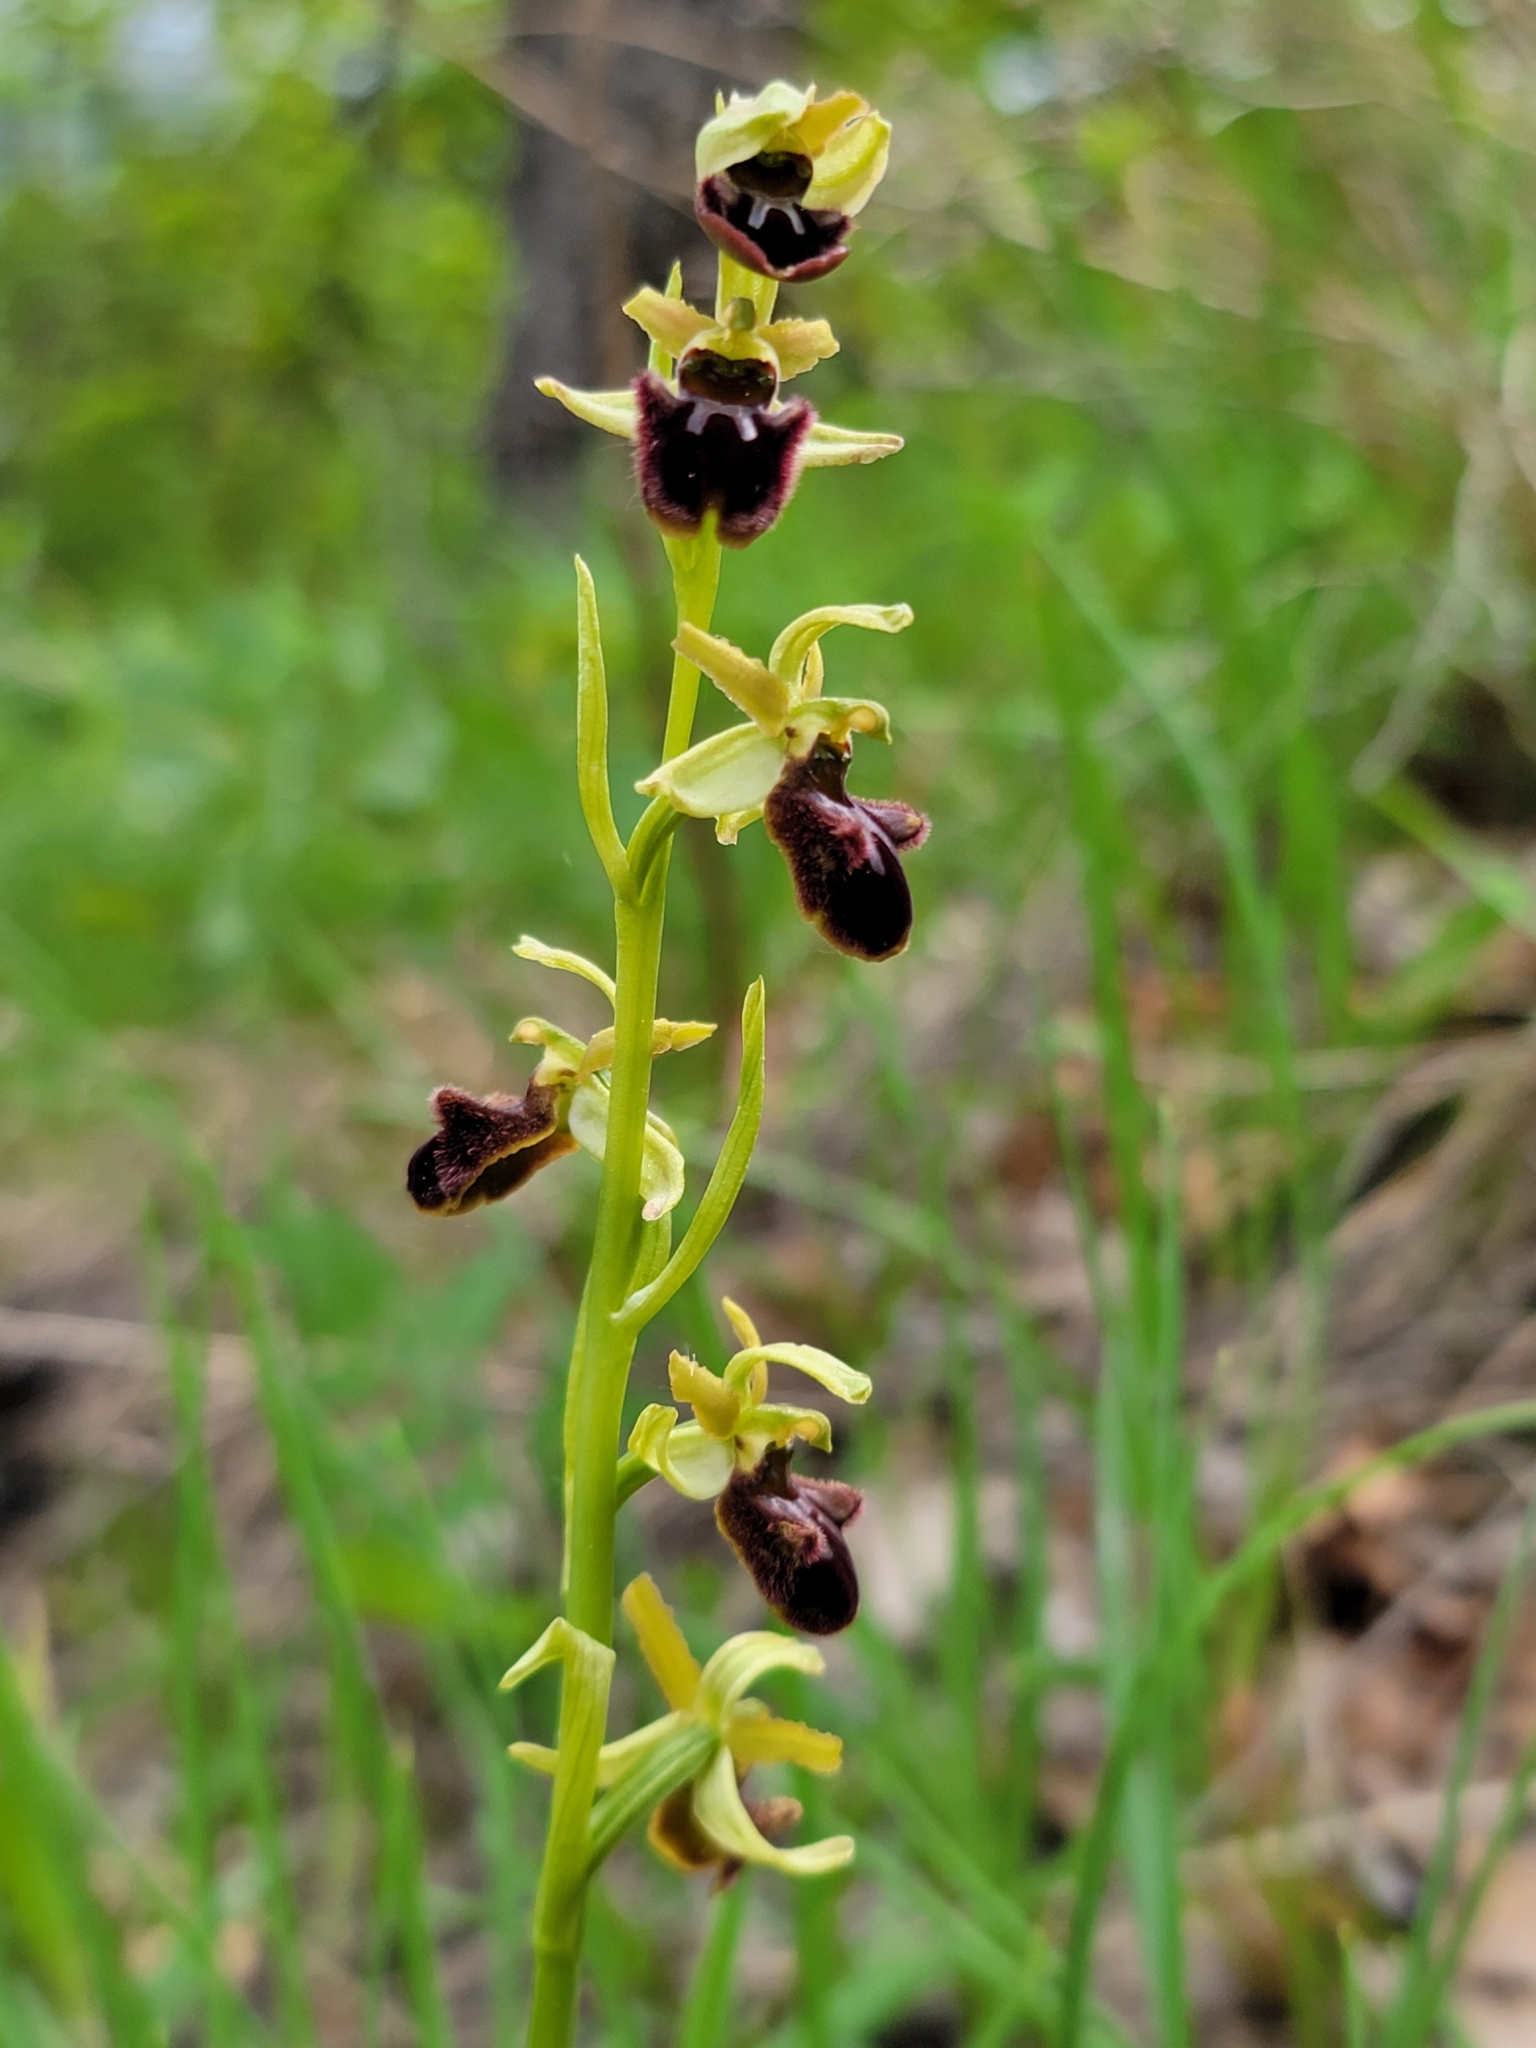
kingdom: Plantae
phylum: Tracheophyta
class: Liliopsida
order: Asparagales
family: Orchidaceae
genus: Ophrys
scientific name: Ophrys sphegodes
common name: Early spider-orchid
